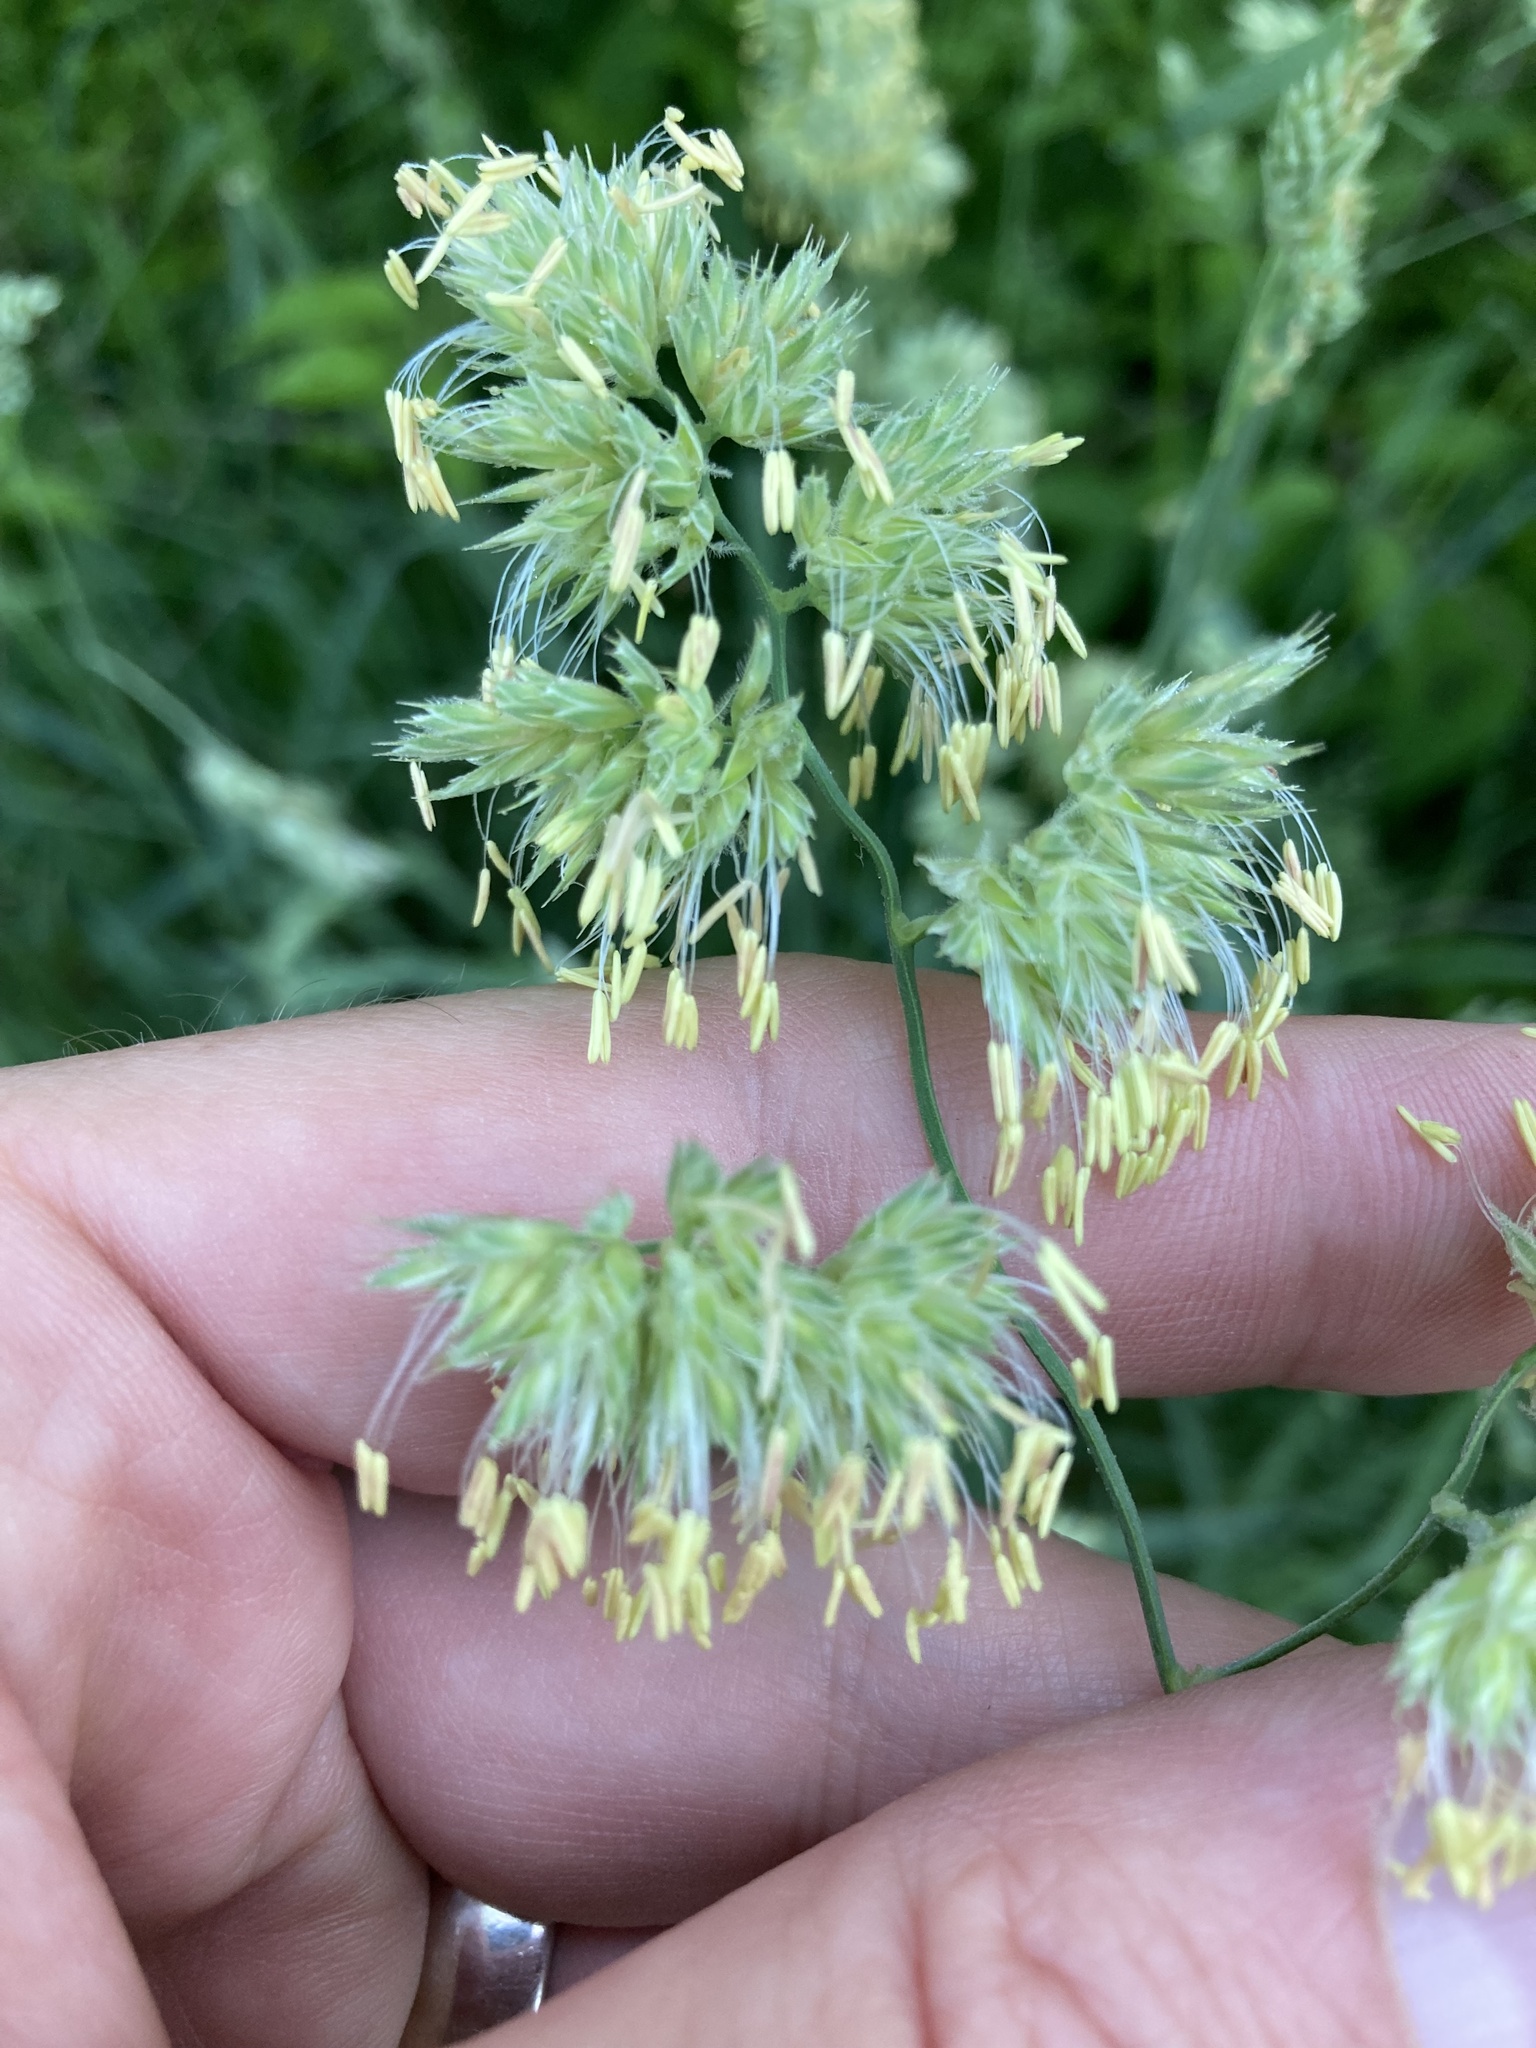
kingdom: Plantae
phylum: Tracheophyta
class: Liliopsida
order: Poales
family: Poaceae
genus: Dactylis
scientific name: Dactylis glomerata
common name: Orchardgrass
